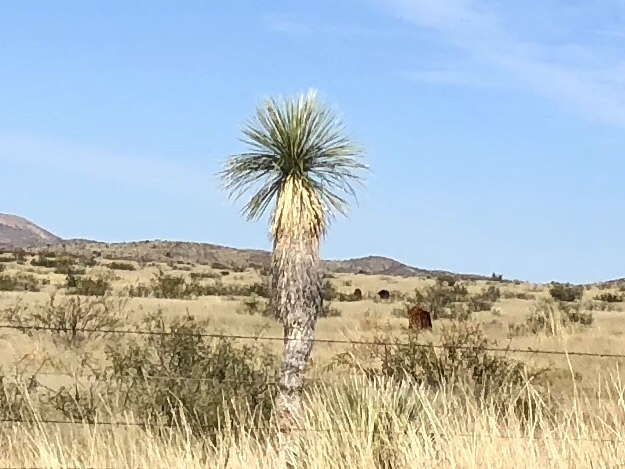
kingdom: Plantae
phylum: Tracheophyta
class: Liliopsida
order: Asparagales
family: Asparagaceae
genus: Yucca
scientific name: Yucca elata
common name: Palmella
